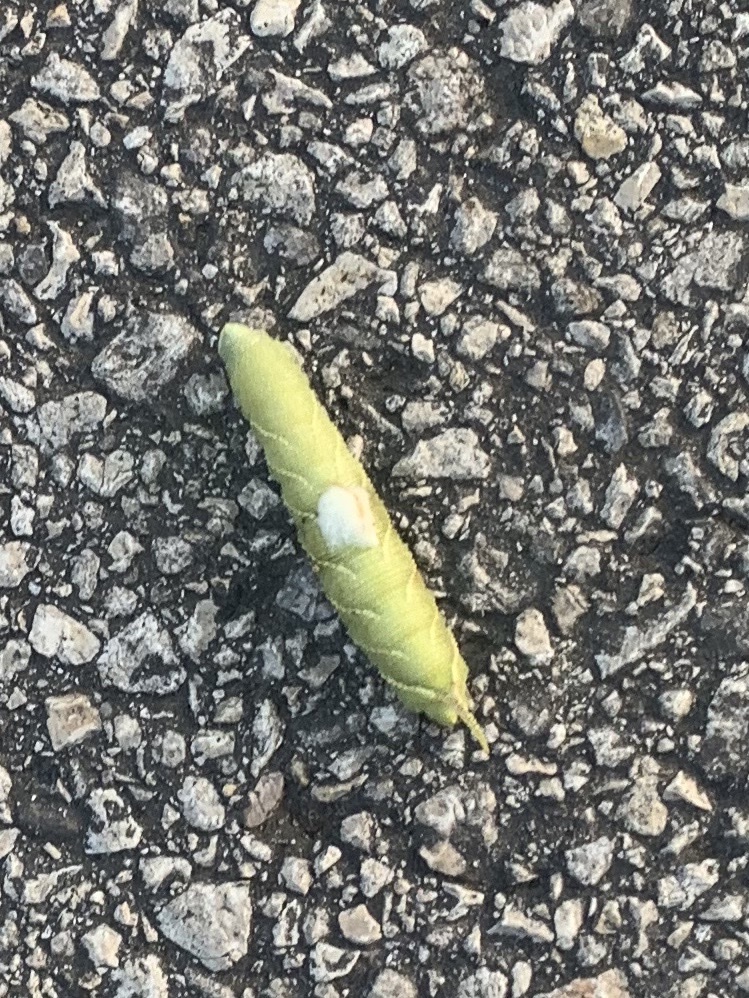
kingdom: Animalia
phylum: Arthropoda
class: Insecta
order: Lepidoptera
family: Sphingidae
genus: Amorpha
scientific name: Amorpha juglandis
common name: Walnut sphinx
